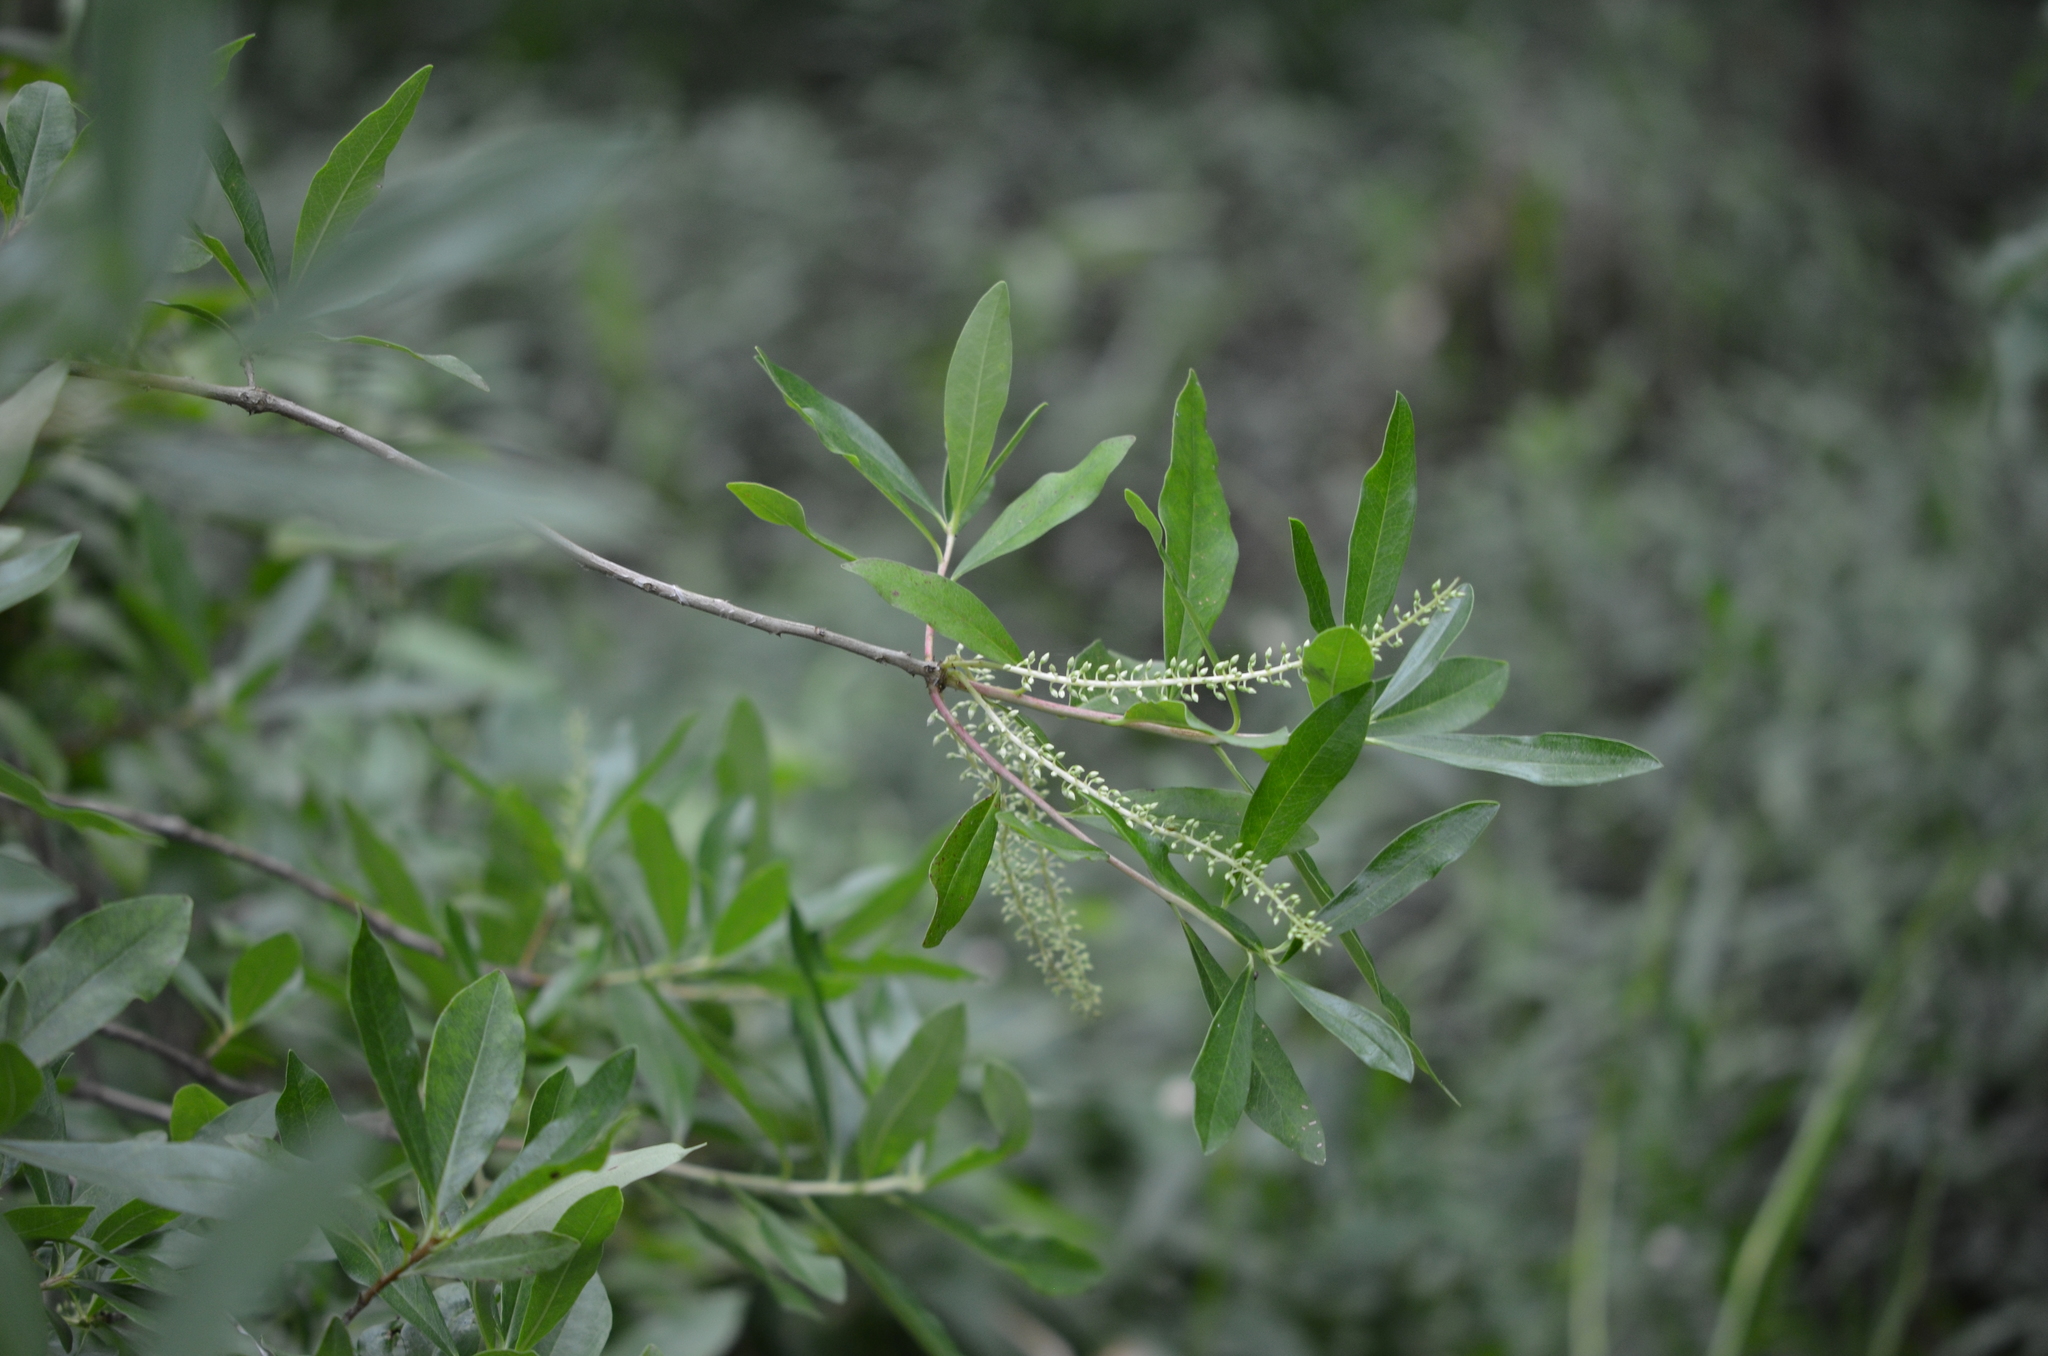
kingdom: Plantae
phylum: Tracheophyta
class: Magnoliopsida
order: Ericales
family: Cyrillaceae
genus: Cyrilla
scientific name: Cyrilla racemiflora
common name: Black titi
